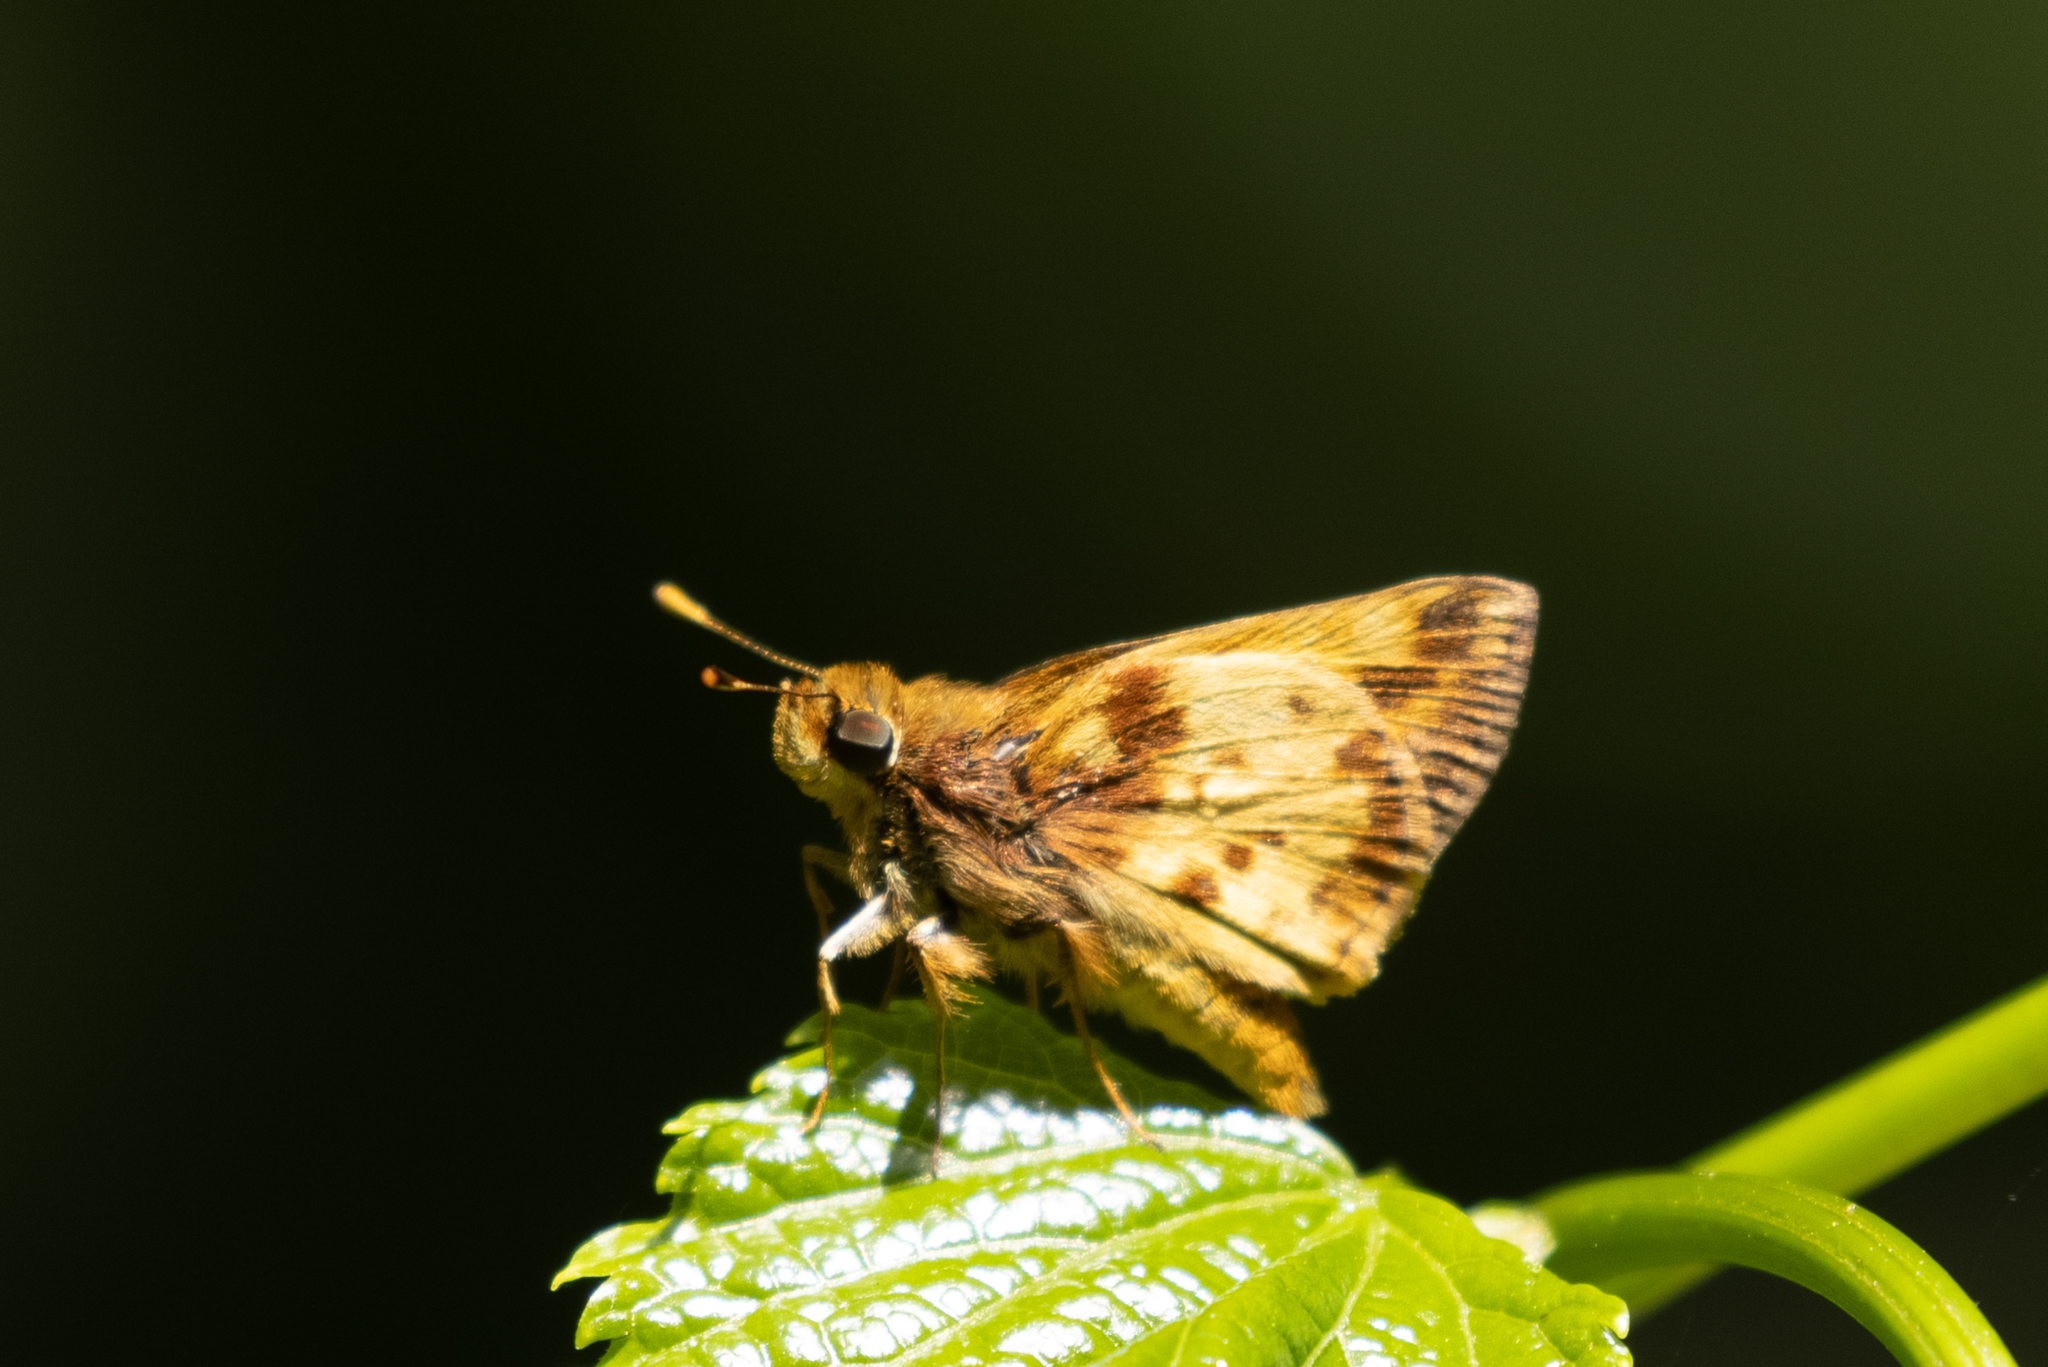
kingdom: Animalia
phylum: Arthropoda
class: Insecta
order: Lepidoptera
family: Hesperiidae
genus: Lon
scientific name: Lon zabulon
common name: Zabulon skipper
